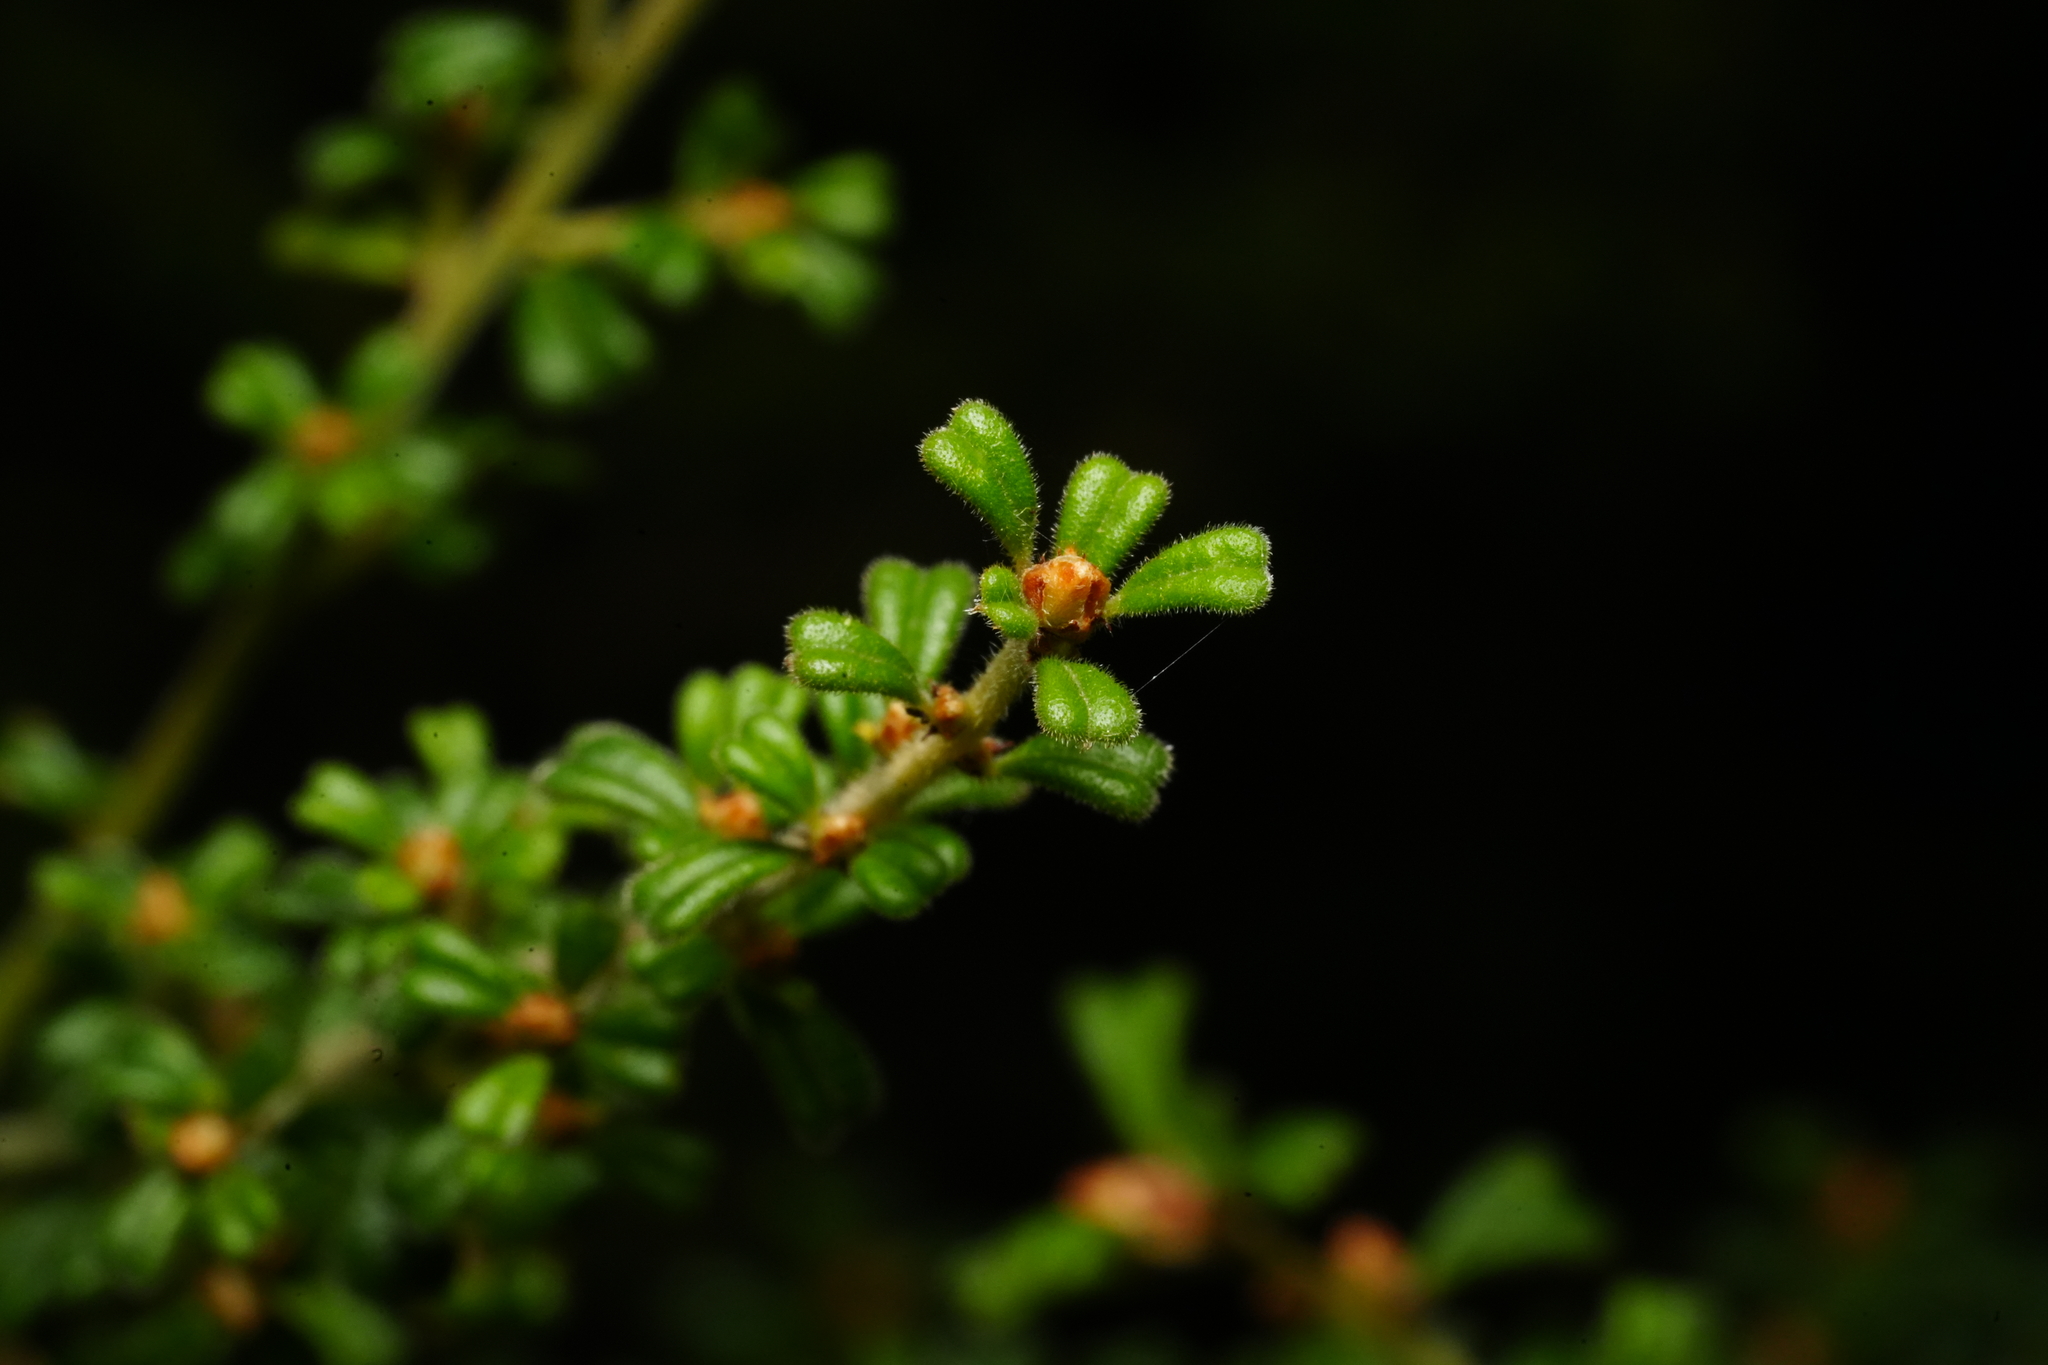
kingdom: Plantae
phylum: Tracheophyta
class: Magnoliopsida
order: Fabales
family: Fabaceae
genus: Pultenaea
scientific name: Pultenaea scabra
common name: Rough bush-pea
